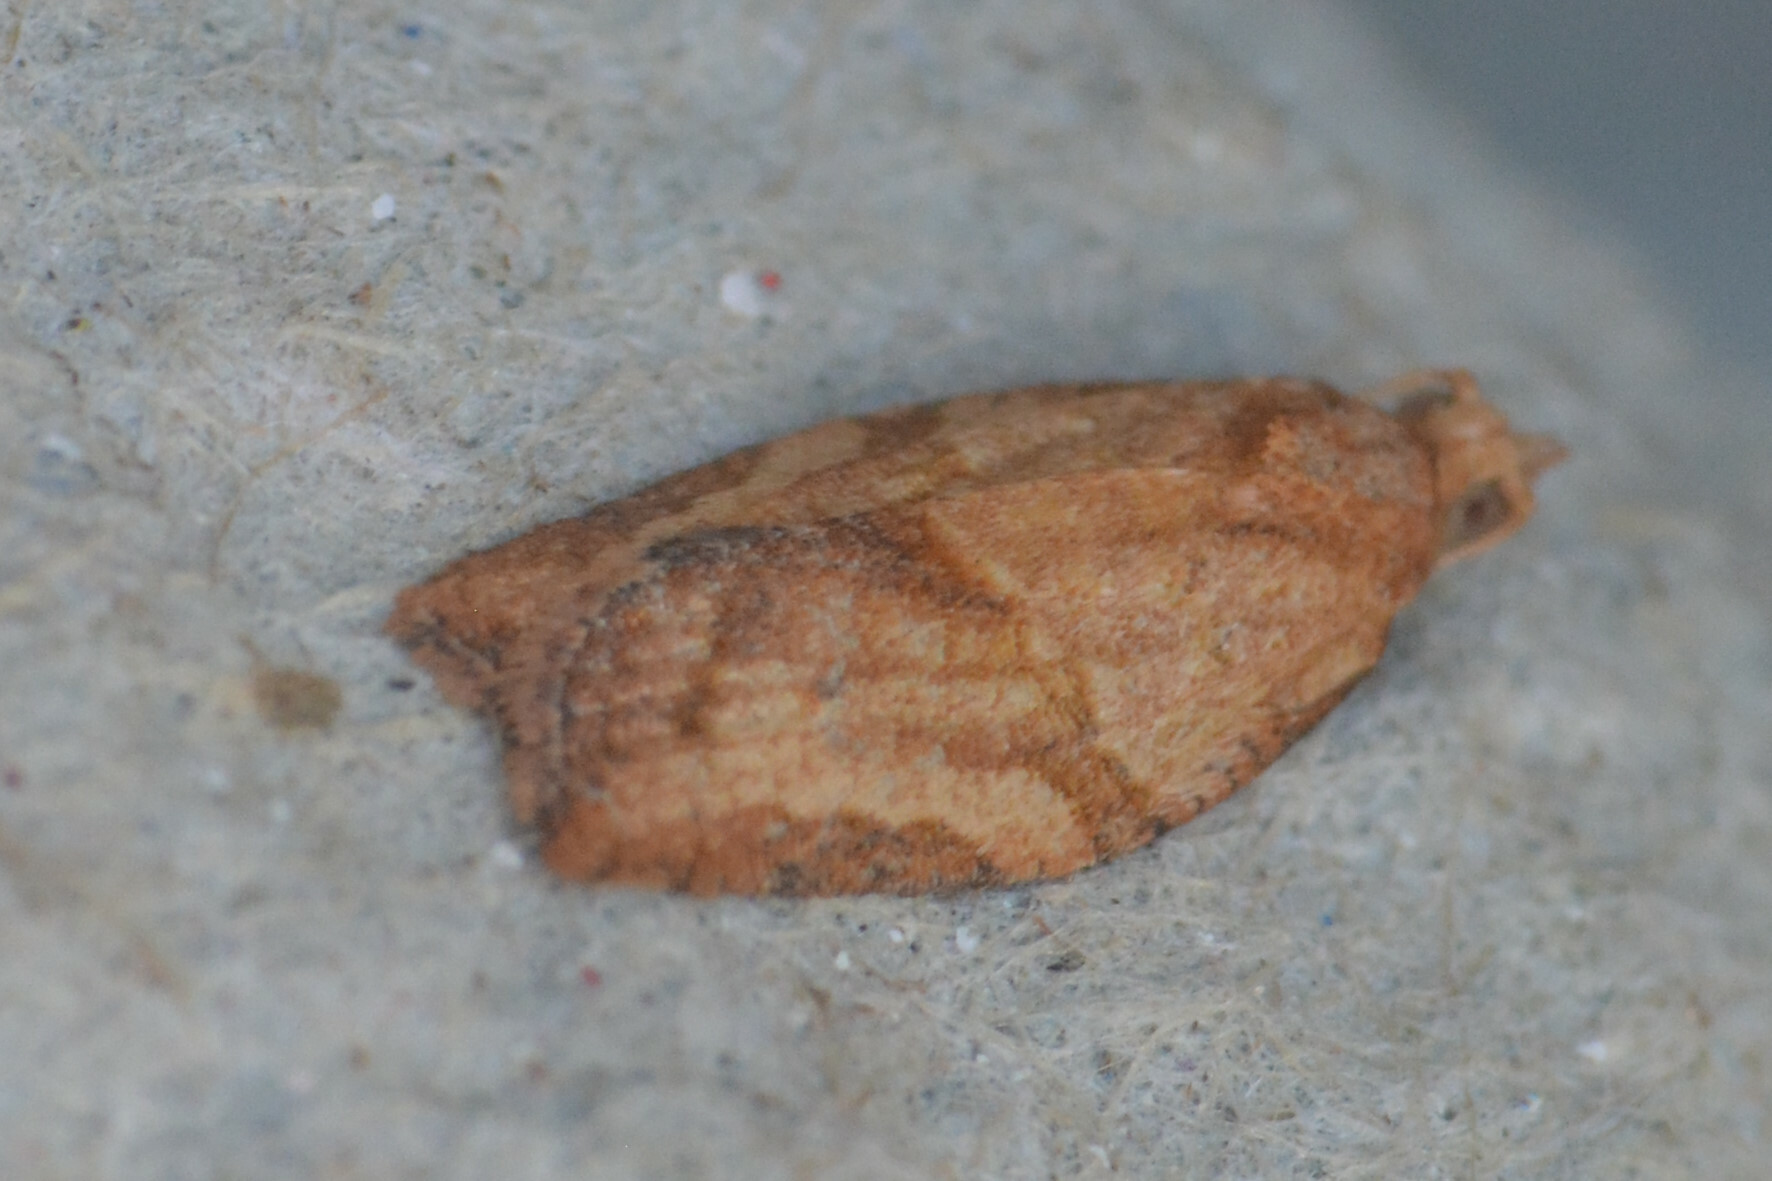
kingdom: Animalia
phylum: Arthropoda
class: Insecta
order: Lepidoptera
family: Tortricidae
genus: Epiphyas
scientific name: Epiphyas postvittana
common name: Light brown apple moth
